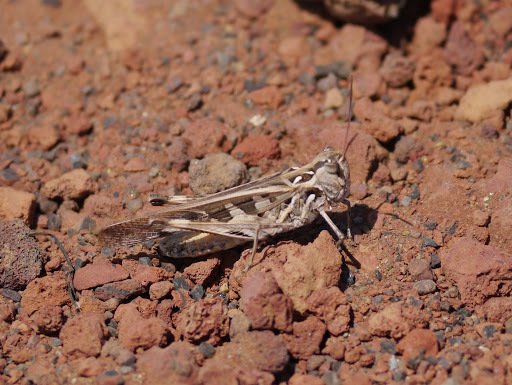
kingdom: Animalia
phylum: Arthropoda
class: Insecta
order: Orthoptera
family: Acrididae
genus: Oedaleus
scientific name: Oedaleus abruptus
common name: Grasshopper
